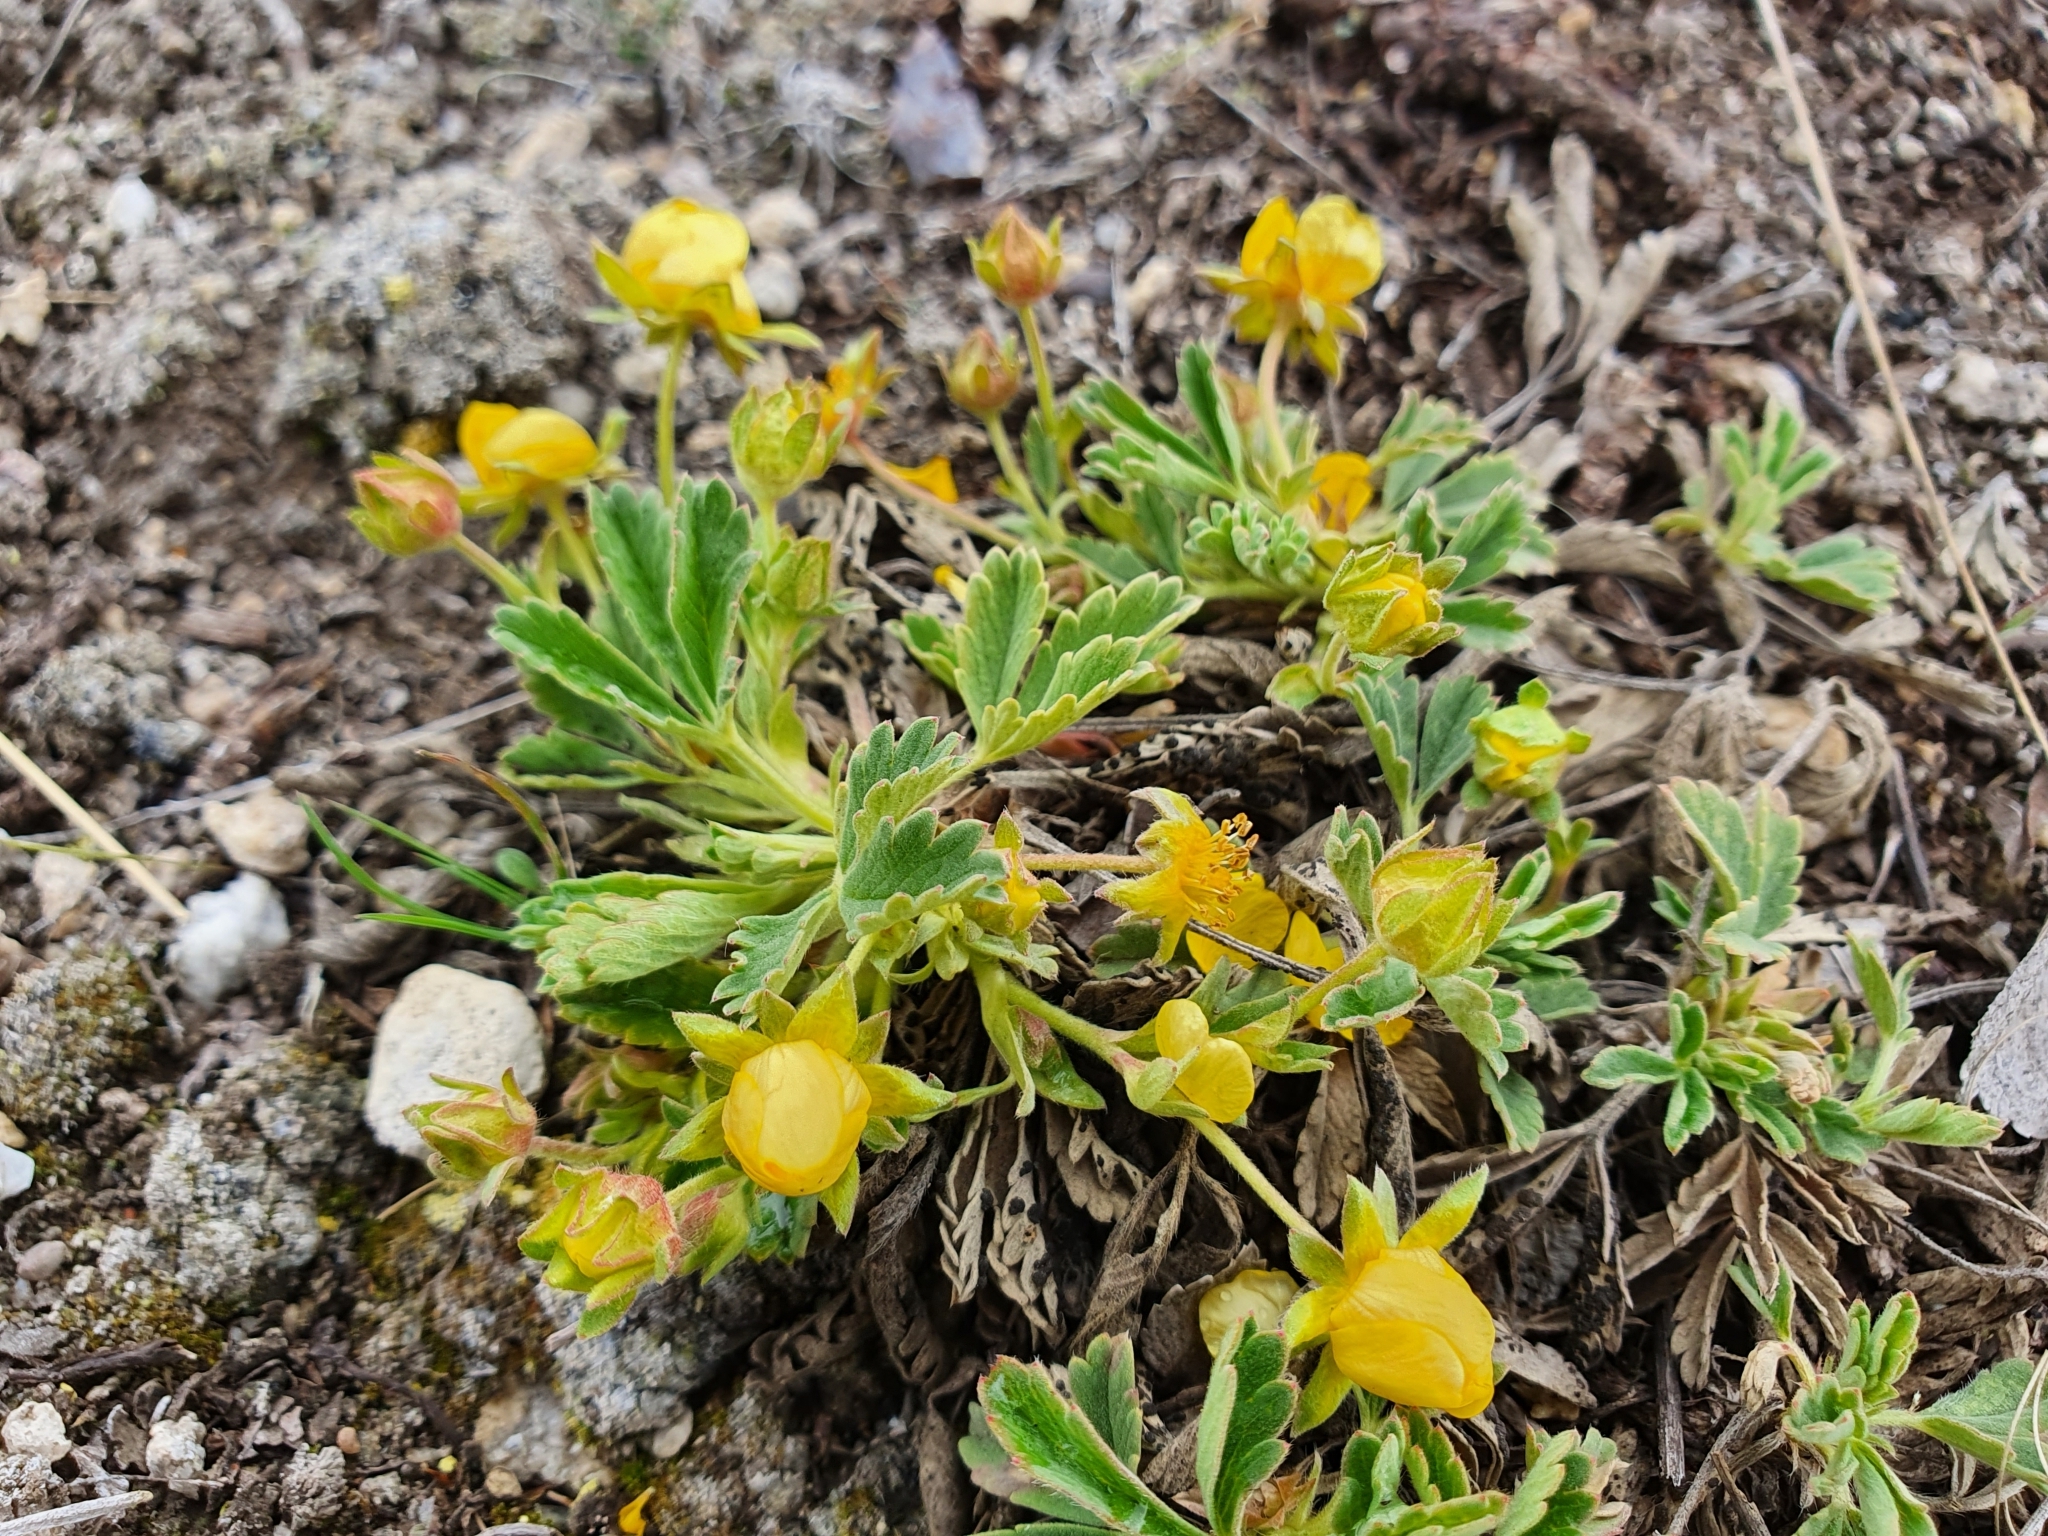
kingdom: Plantae
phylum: Tracheophyta
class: Magnoliopsida
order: Rosales
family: Rosaceae
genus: Potentilla
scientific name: Potentilla incana
